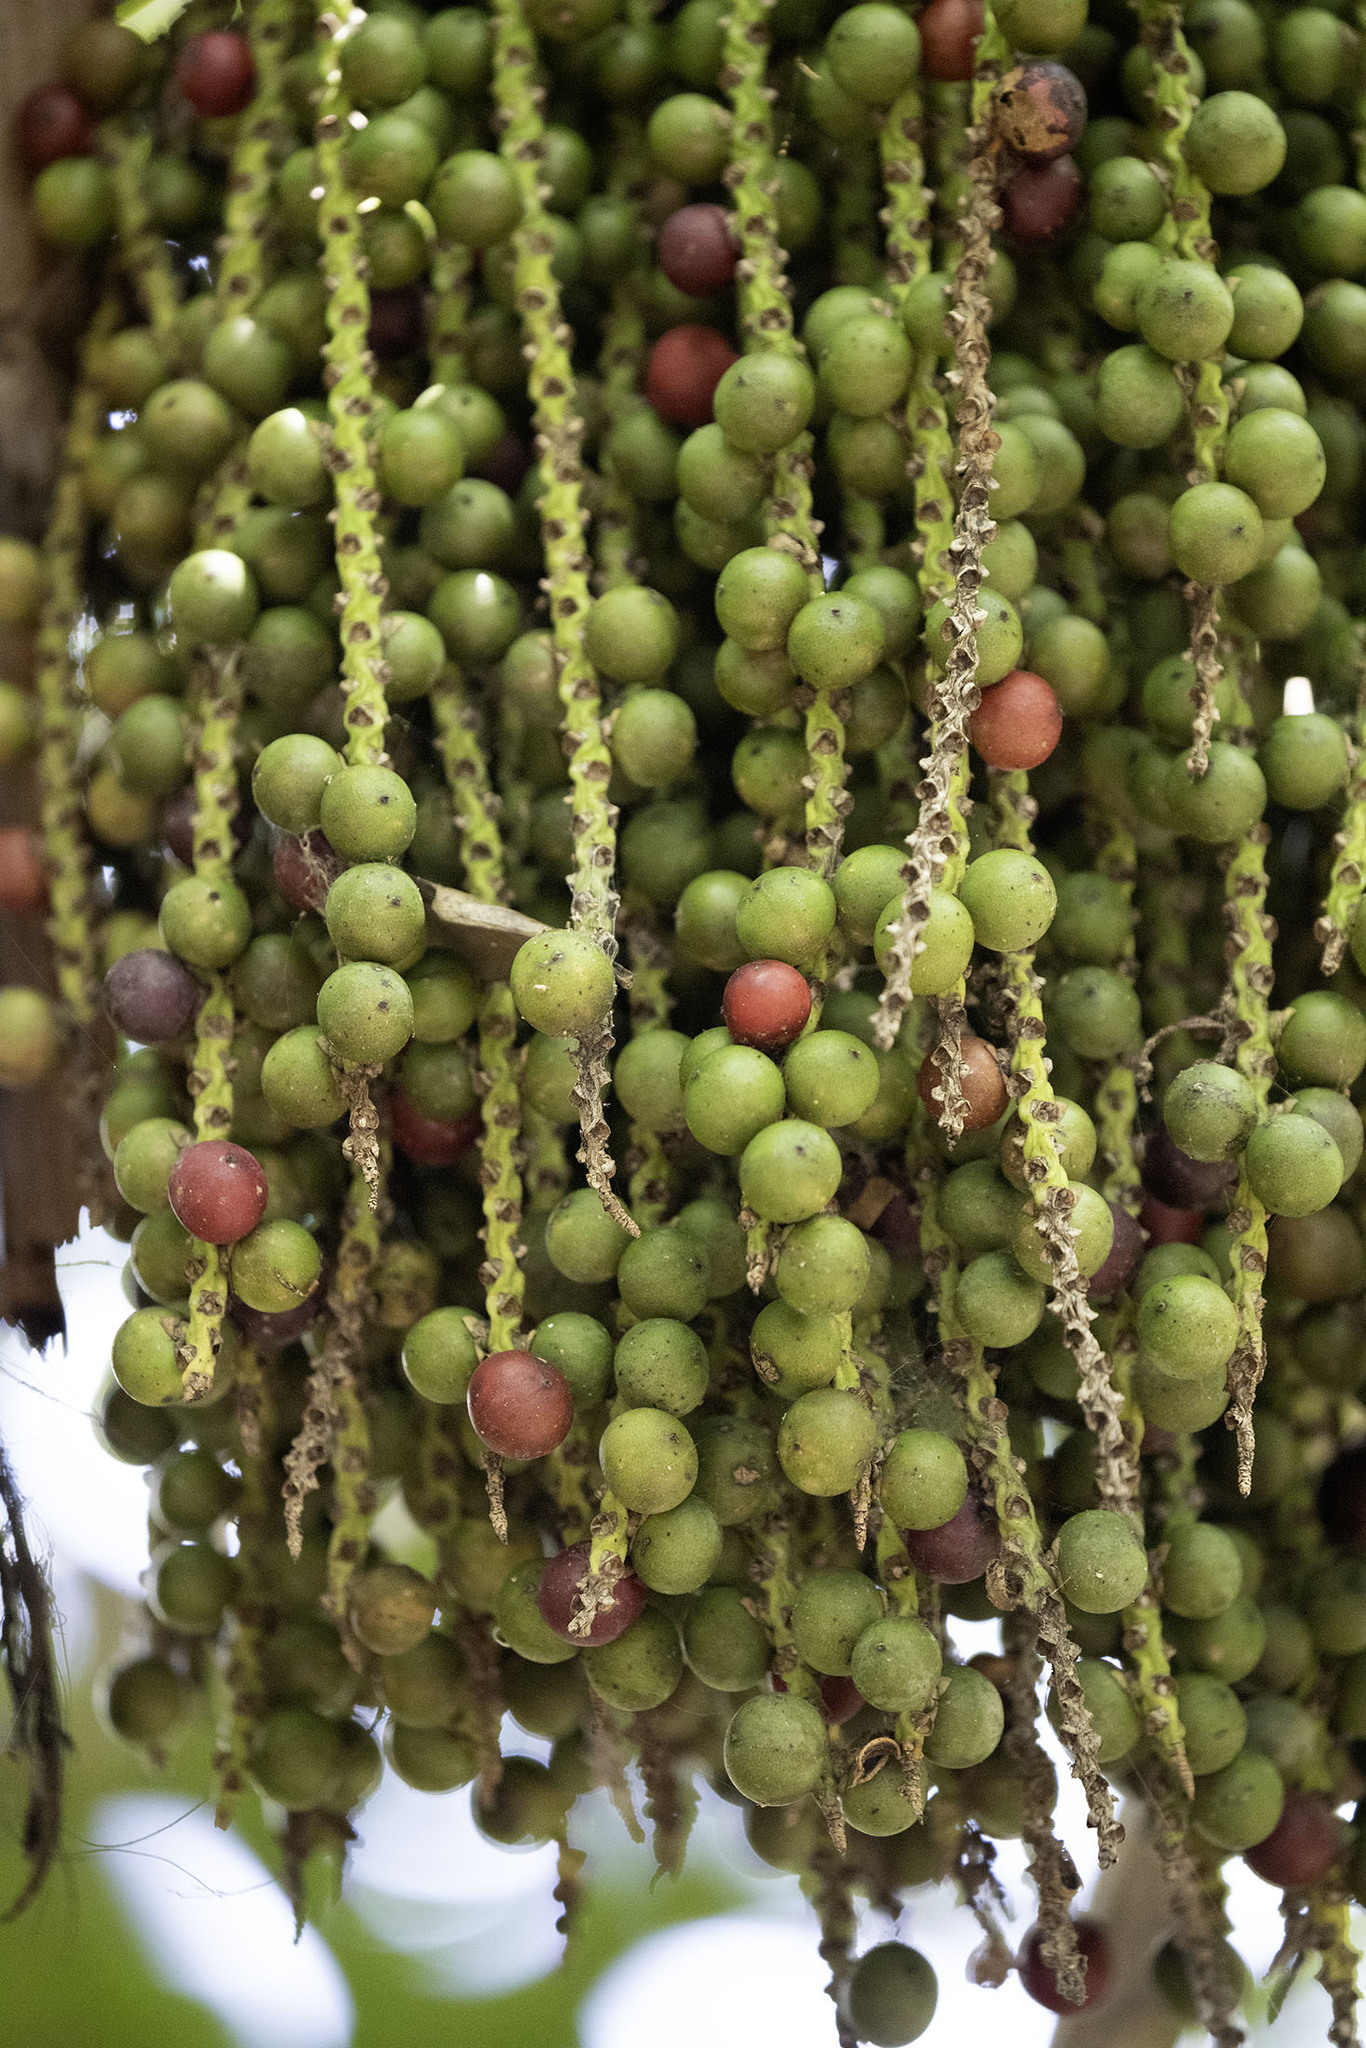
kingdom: Plantae
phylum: Tracheophyta
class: Liliopsida
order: Arecales
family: Arecaceae
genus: Caryota
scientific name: Caryota mitis
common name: Burmese fishtail palm
